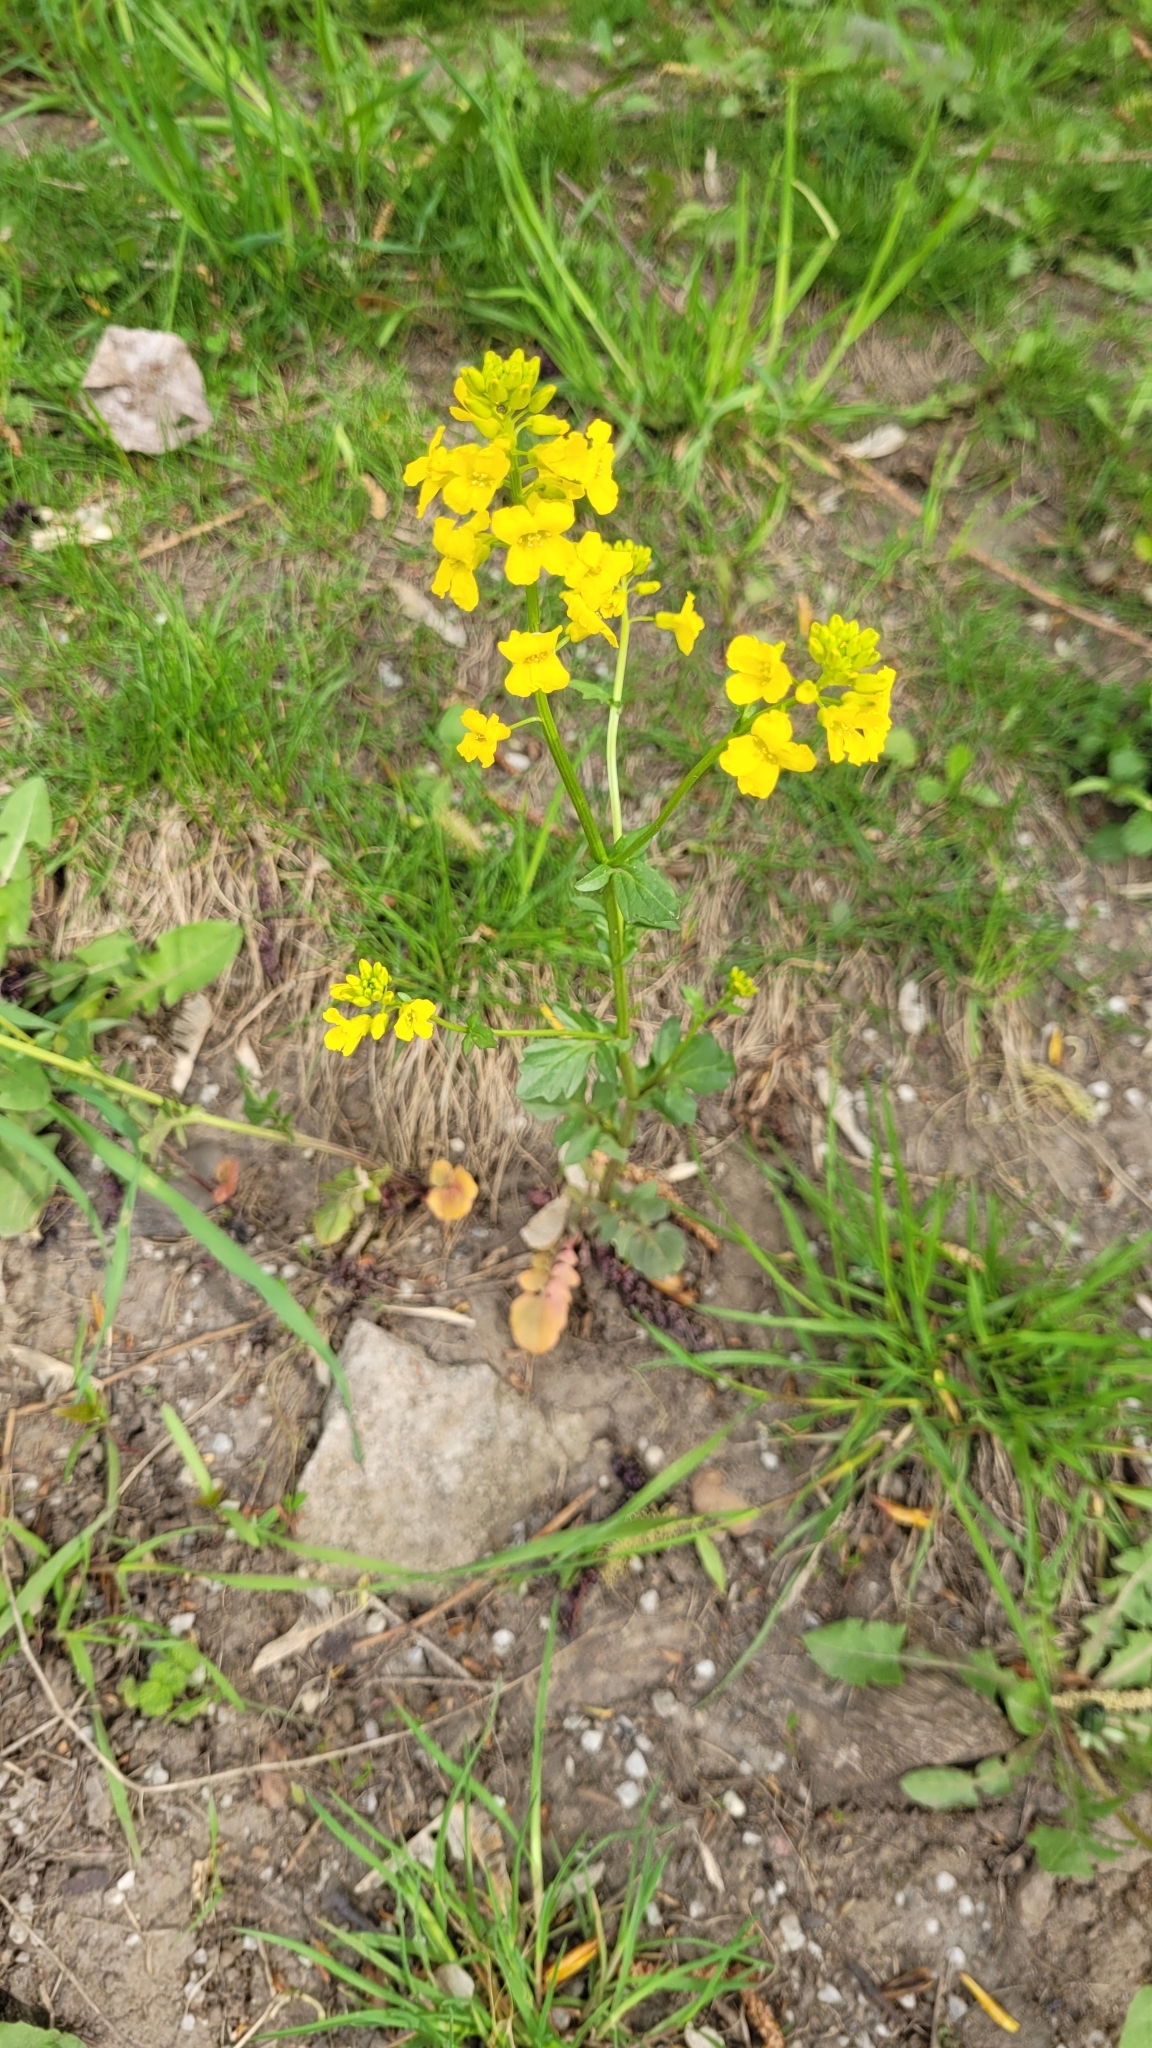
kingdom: Plantae
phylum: Tracheophyta
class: Magnoliopsida
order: Brassicales
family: Brassicaceae
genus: Barbarea
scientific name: Barbarea vulgaris
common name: Cressy-greens
